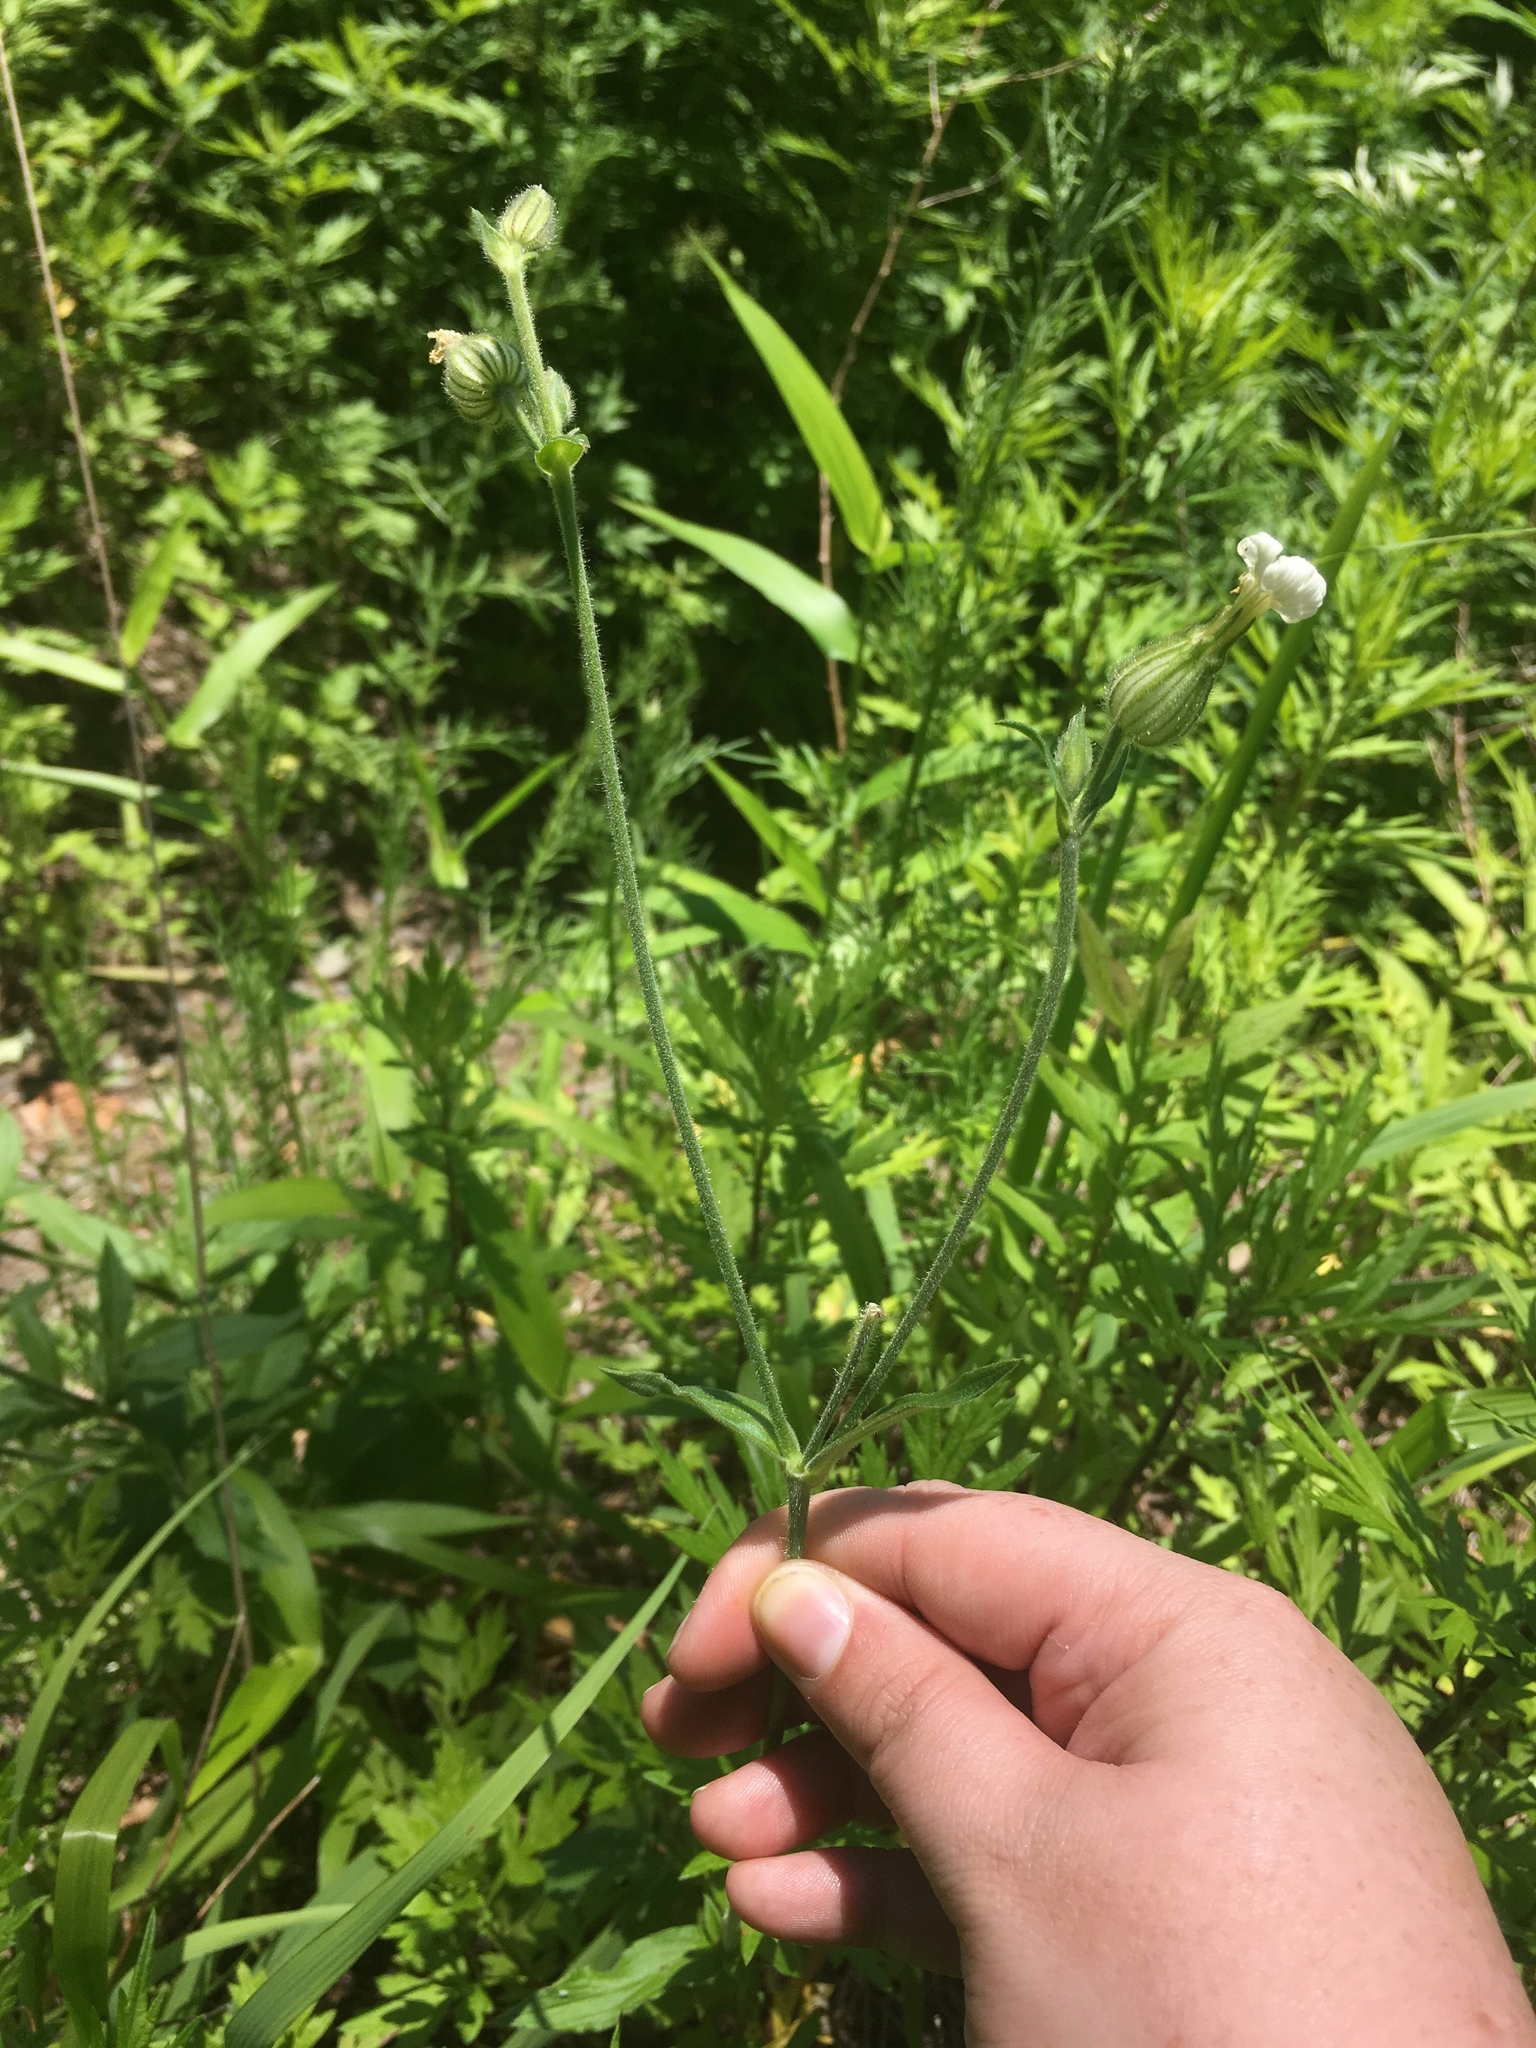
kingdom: Plantae
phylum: Tracheophyta
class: Magnoliopsida
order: Caryophyllales
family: Caryophyllaceae
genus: Silene
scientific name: Silene latifolia
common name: White campion
